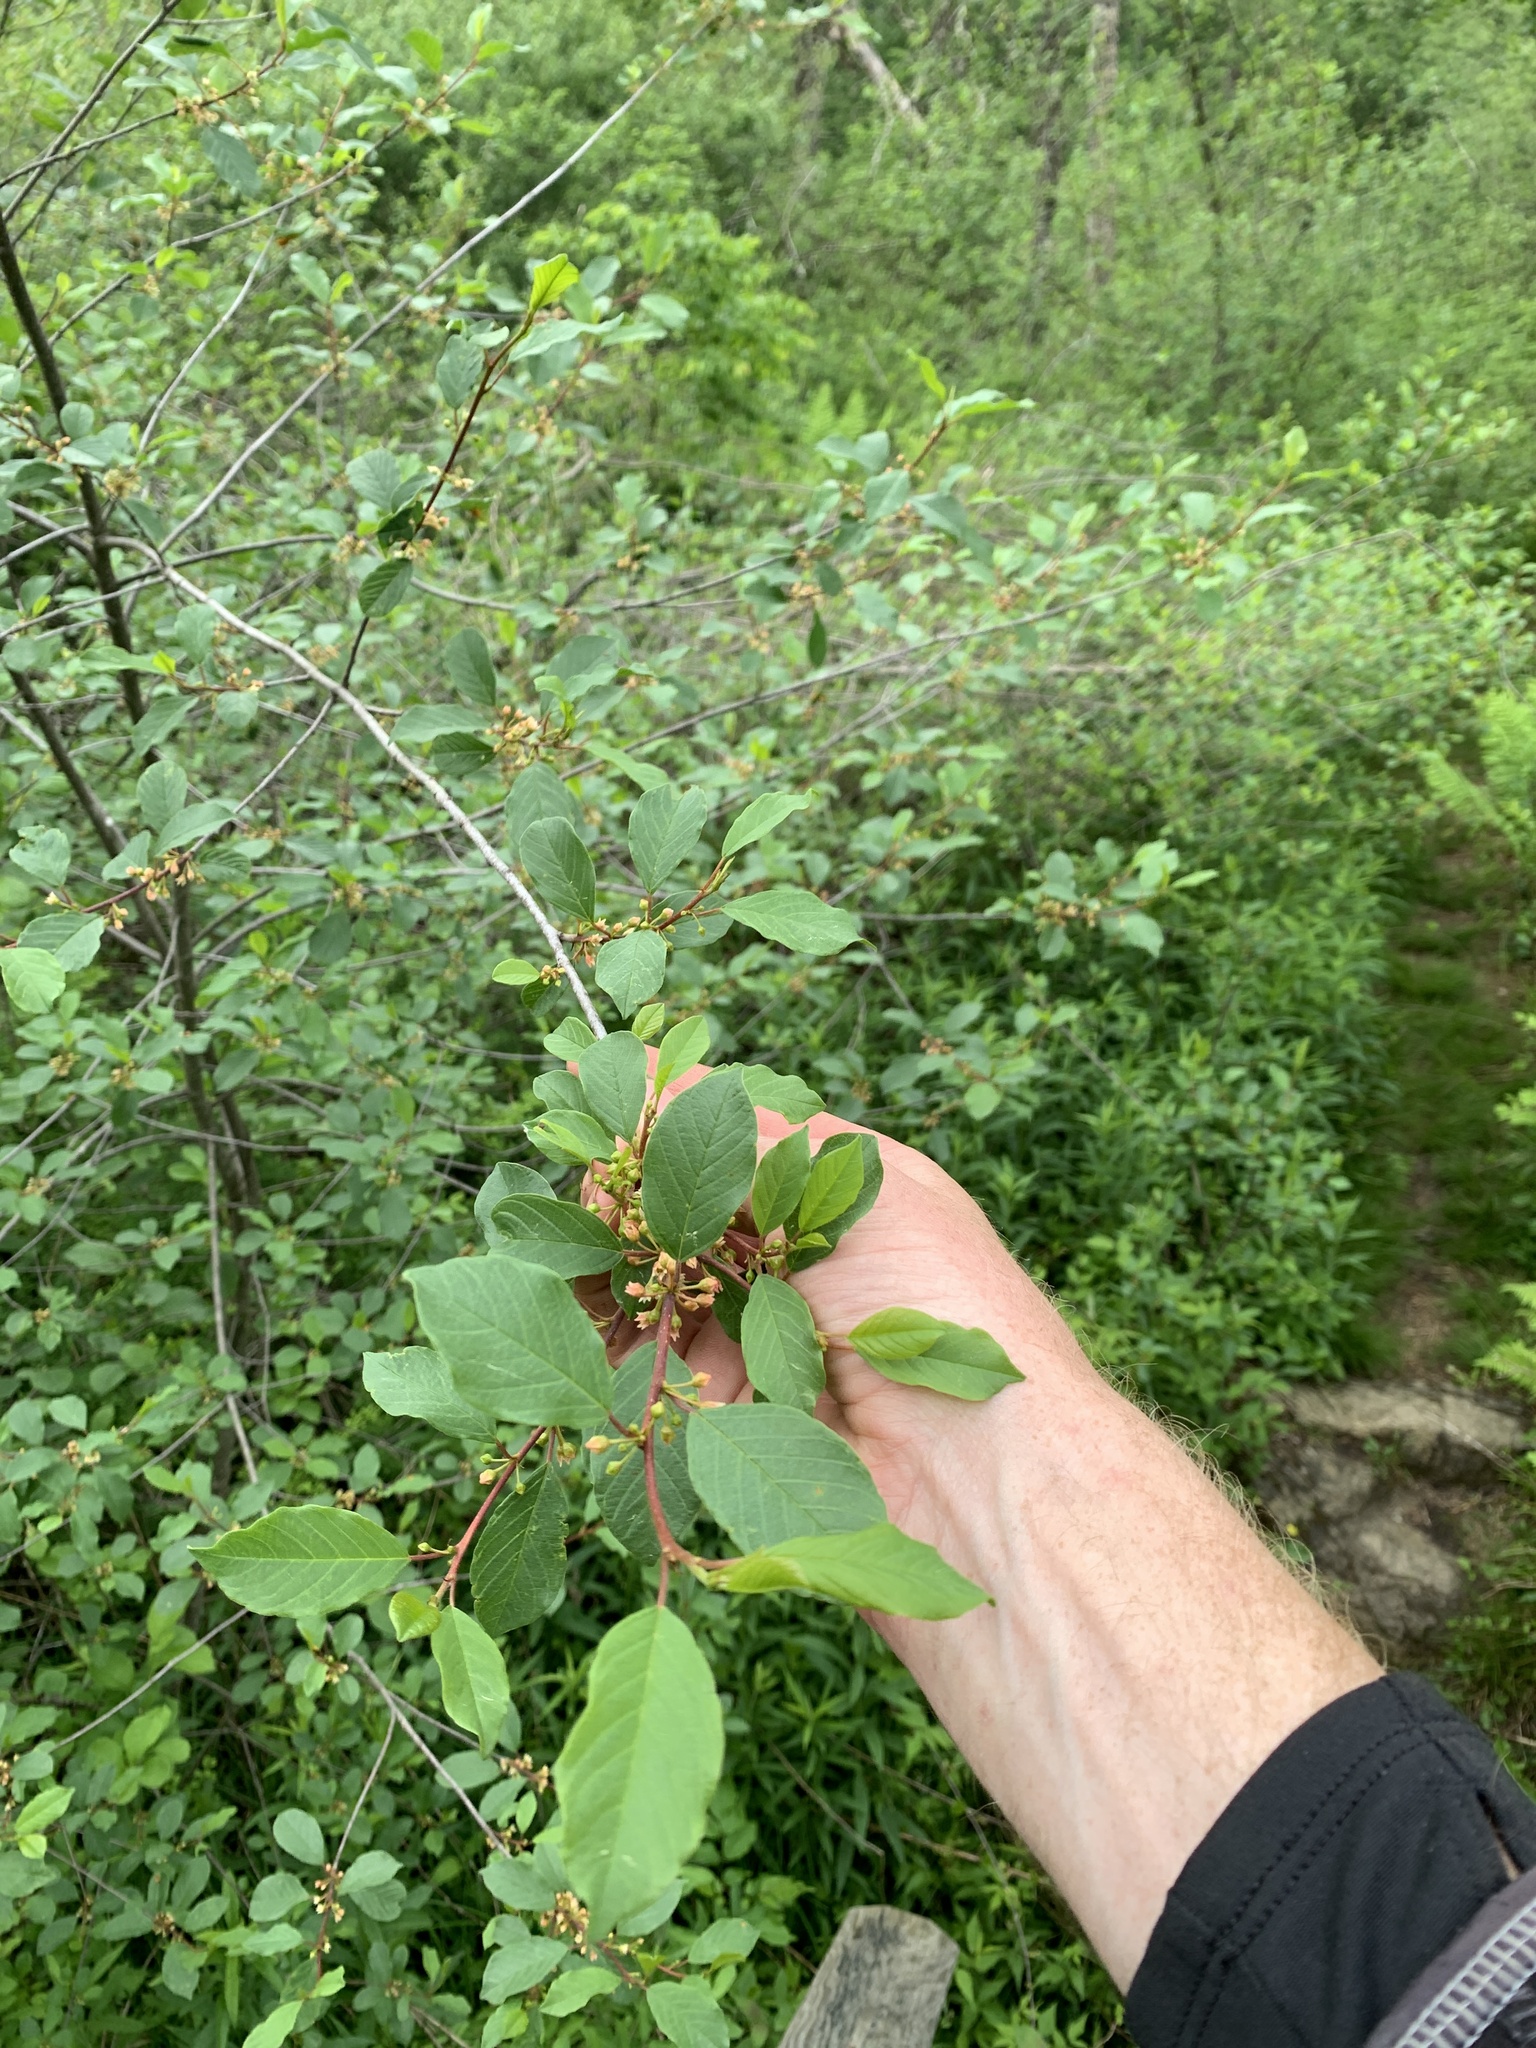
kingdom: Plantae
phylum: Tracheophyta
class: Magnoliopsida
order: Rosales
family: Rhamnaceae
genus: Frangula
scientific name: Frangula alnus
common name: Alder buckthorn
